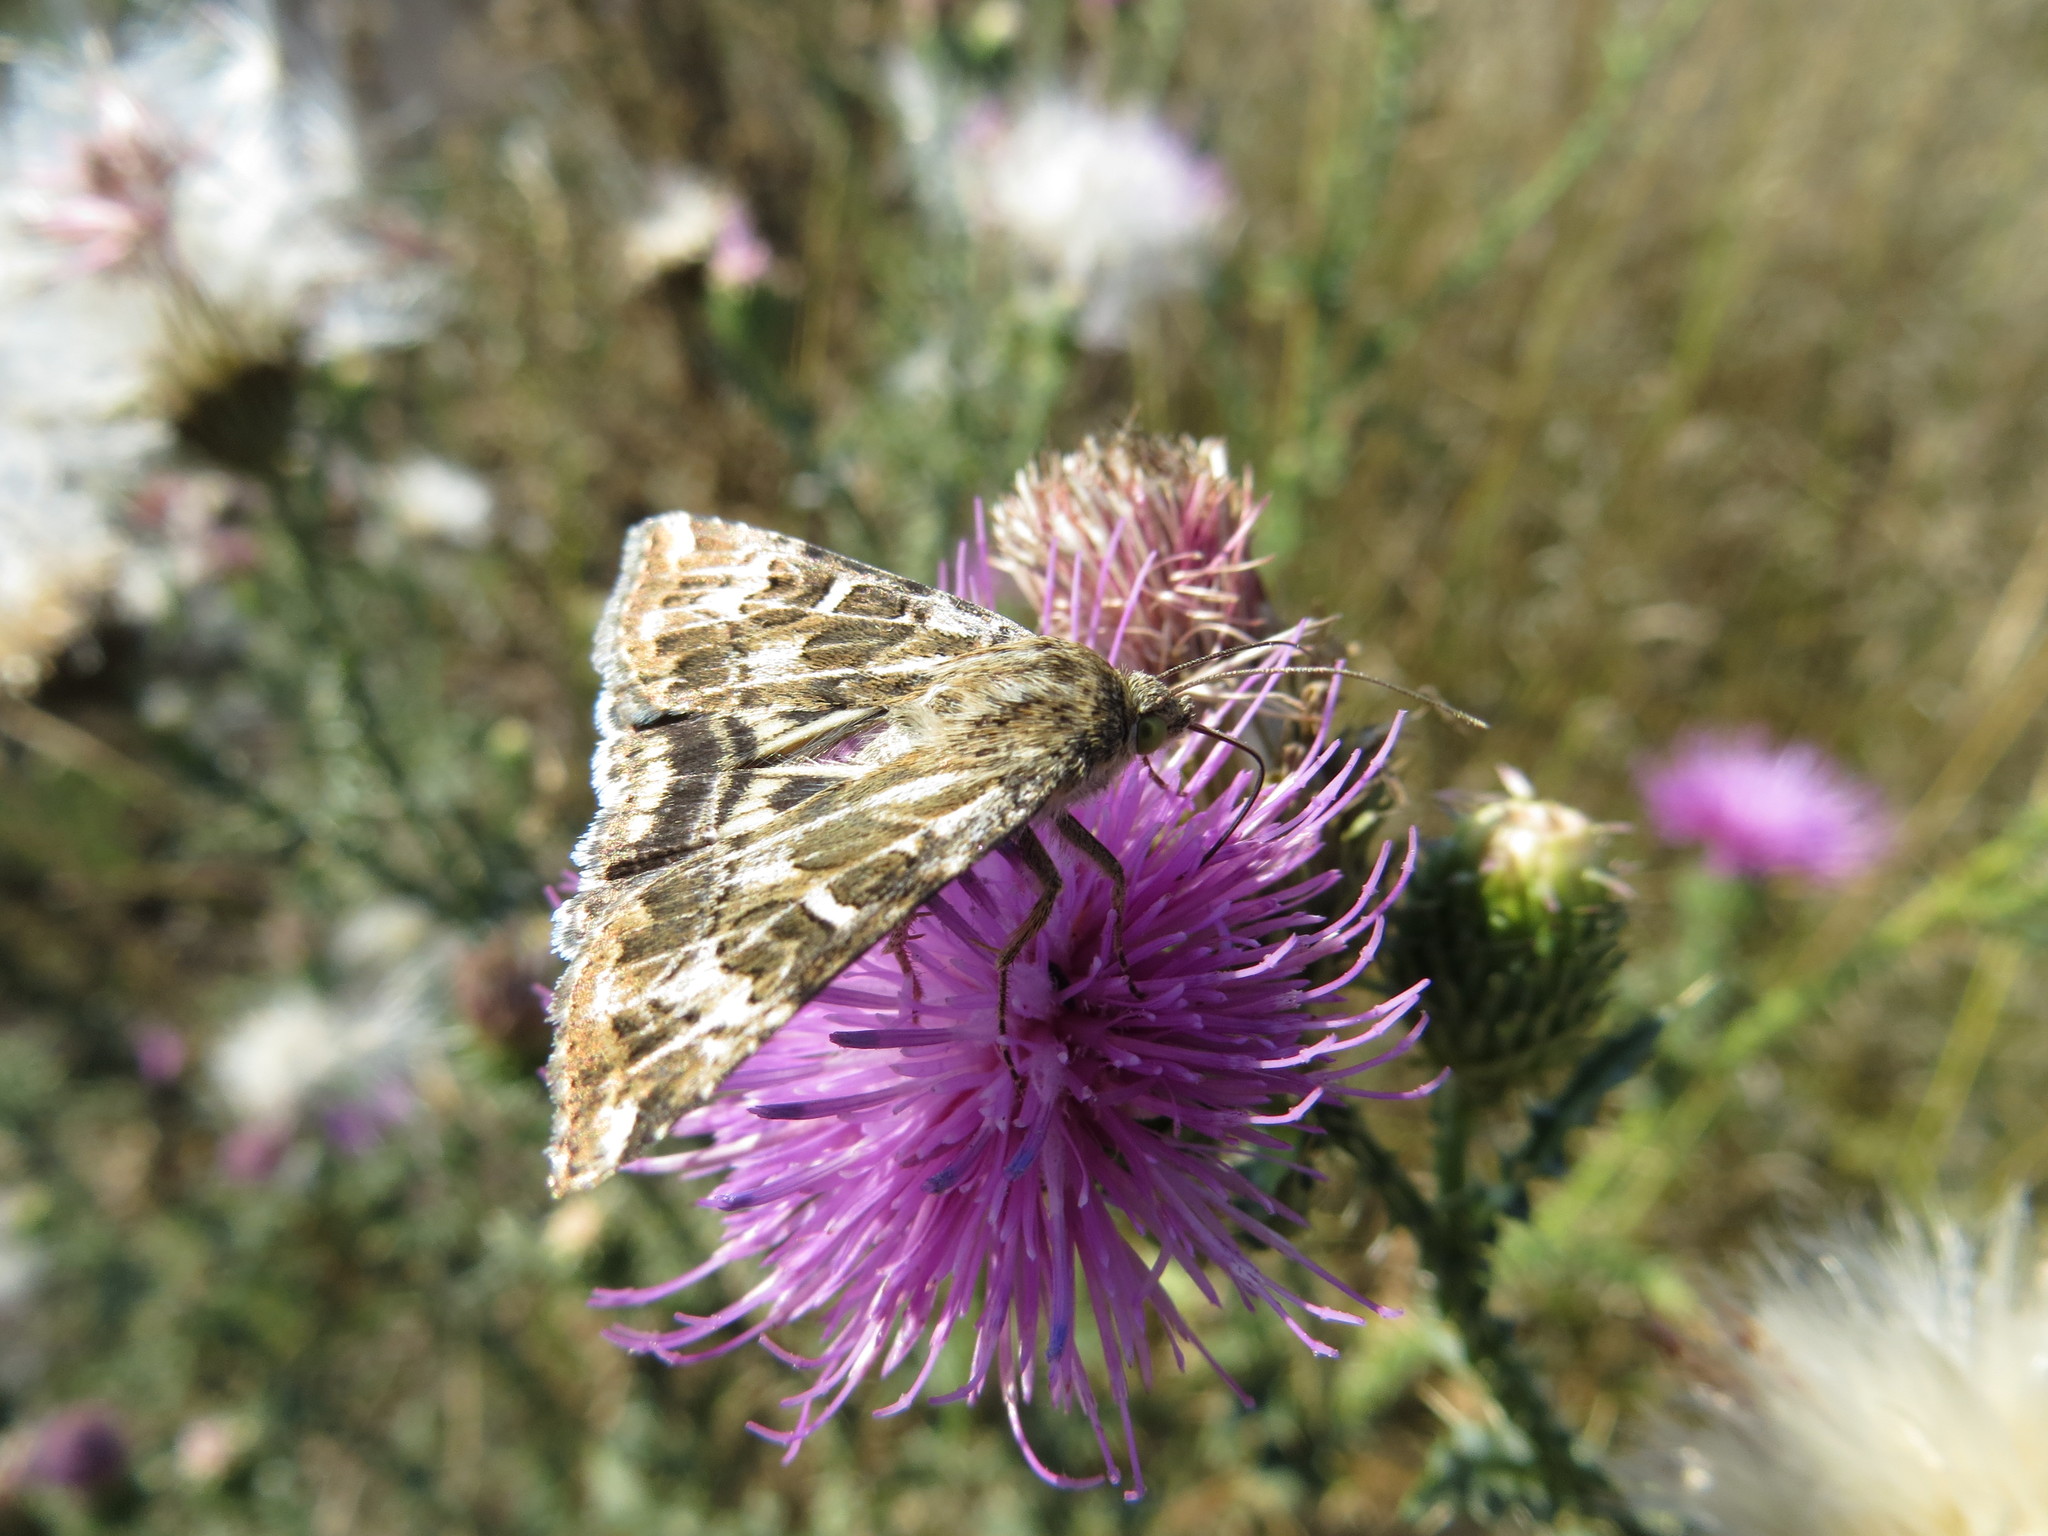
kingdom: Animalia
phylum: Arthropoda
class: Insecta
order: Lepidoptera
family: Noctuidae
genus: Protoschinia
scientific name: Protoschinia scutosa
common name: Spotted clover
